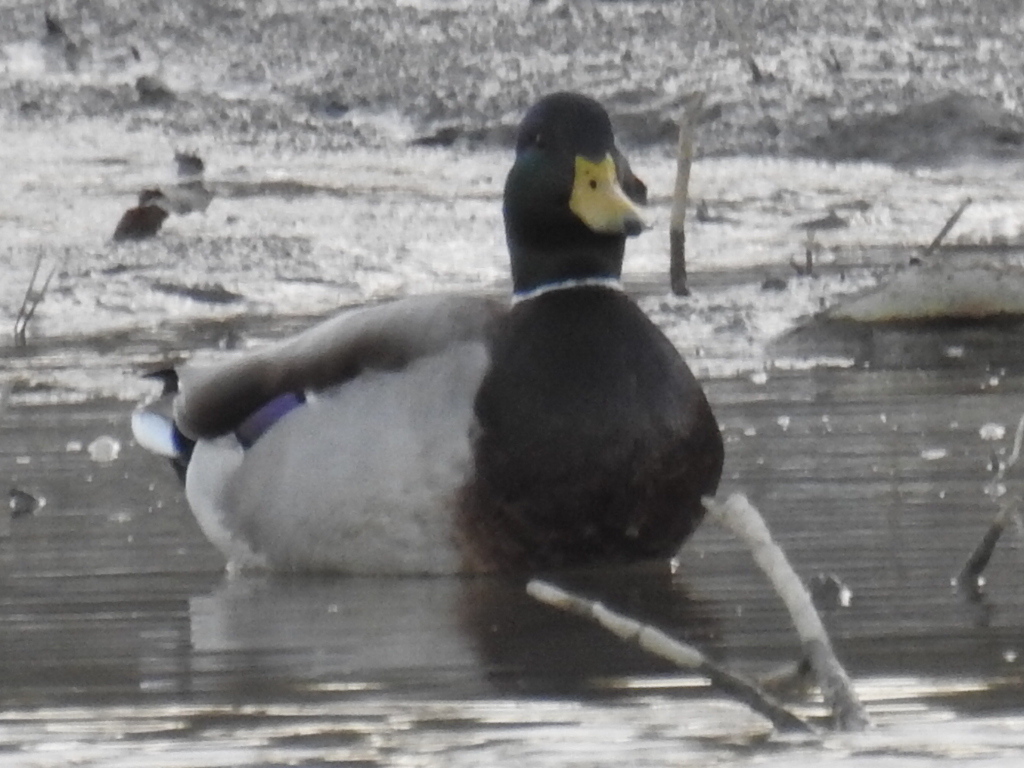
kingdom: Animalia
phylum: Chordata
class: Aves
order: Anseriformes
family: Anatidae
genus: Anas
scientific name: Anas platyrhynchos
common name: Mallard
